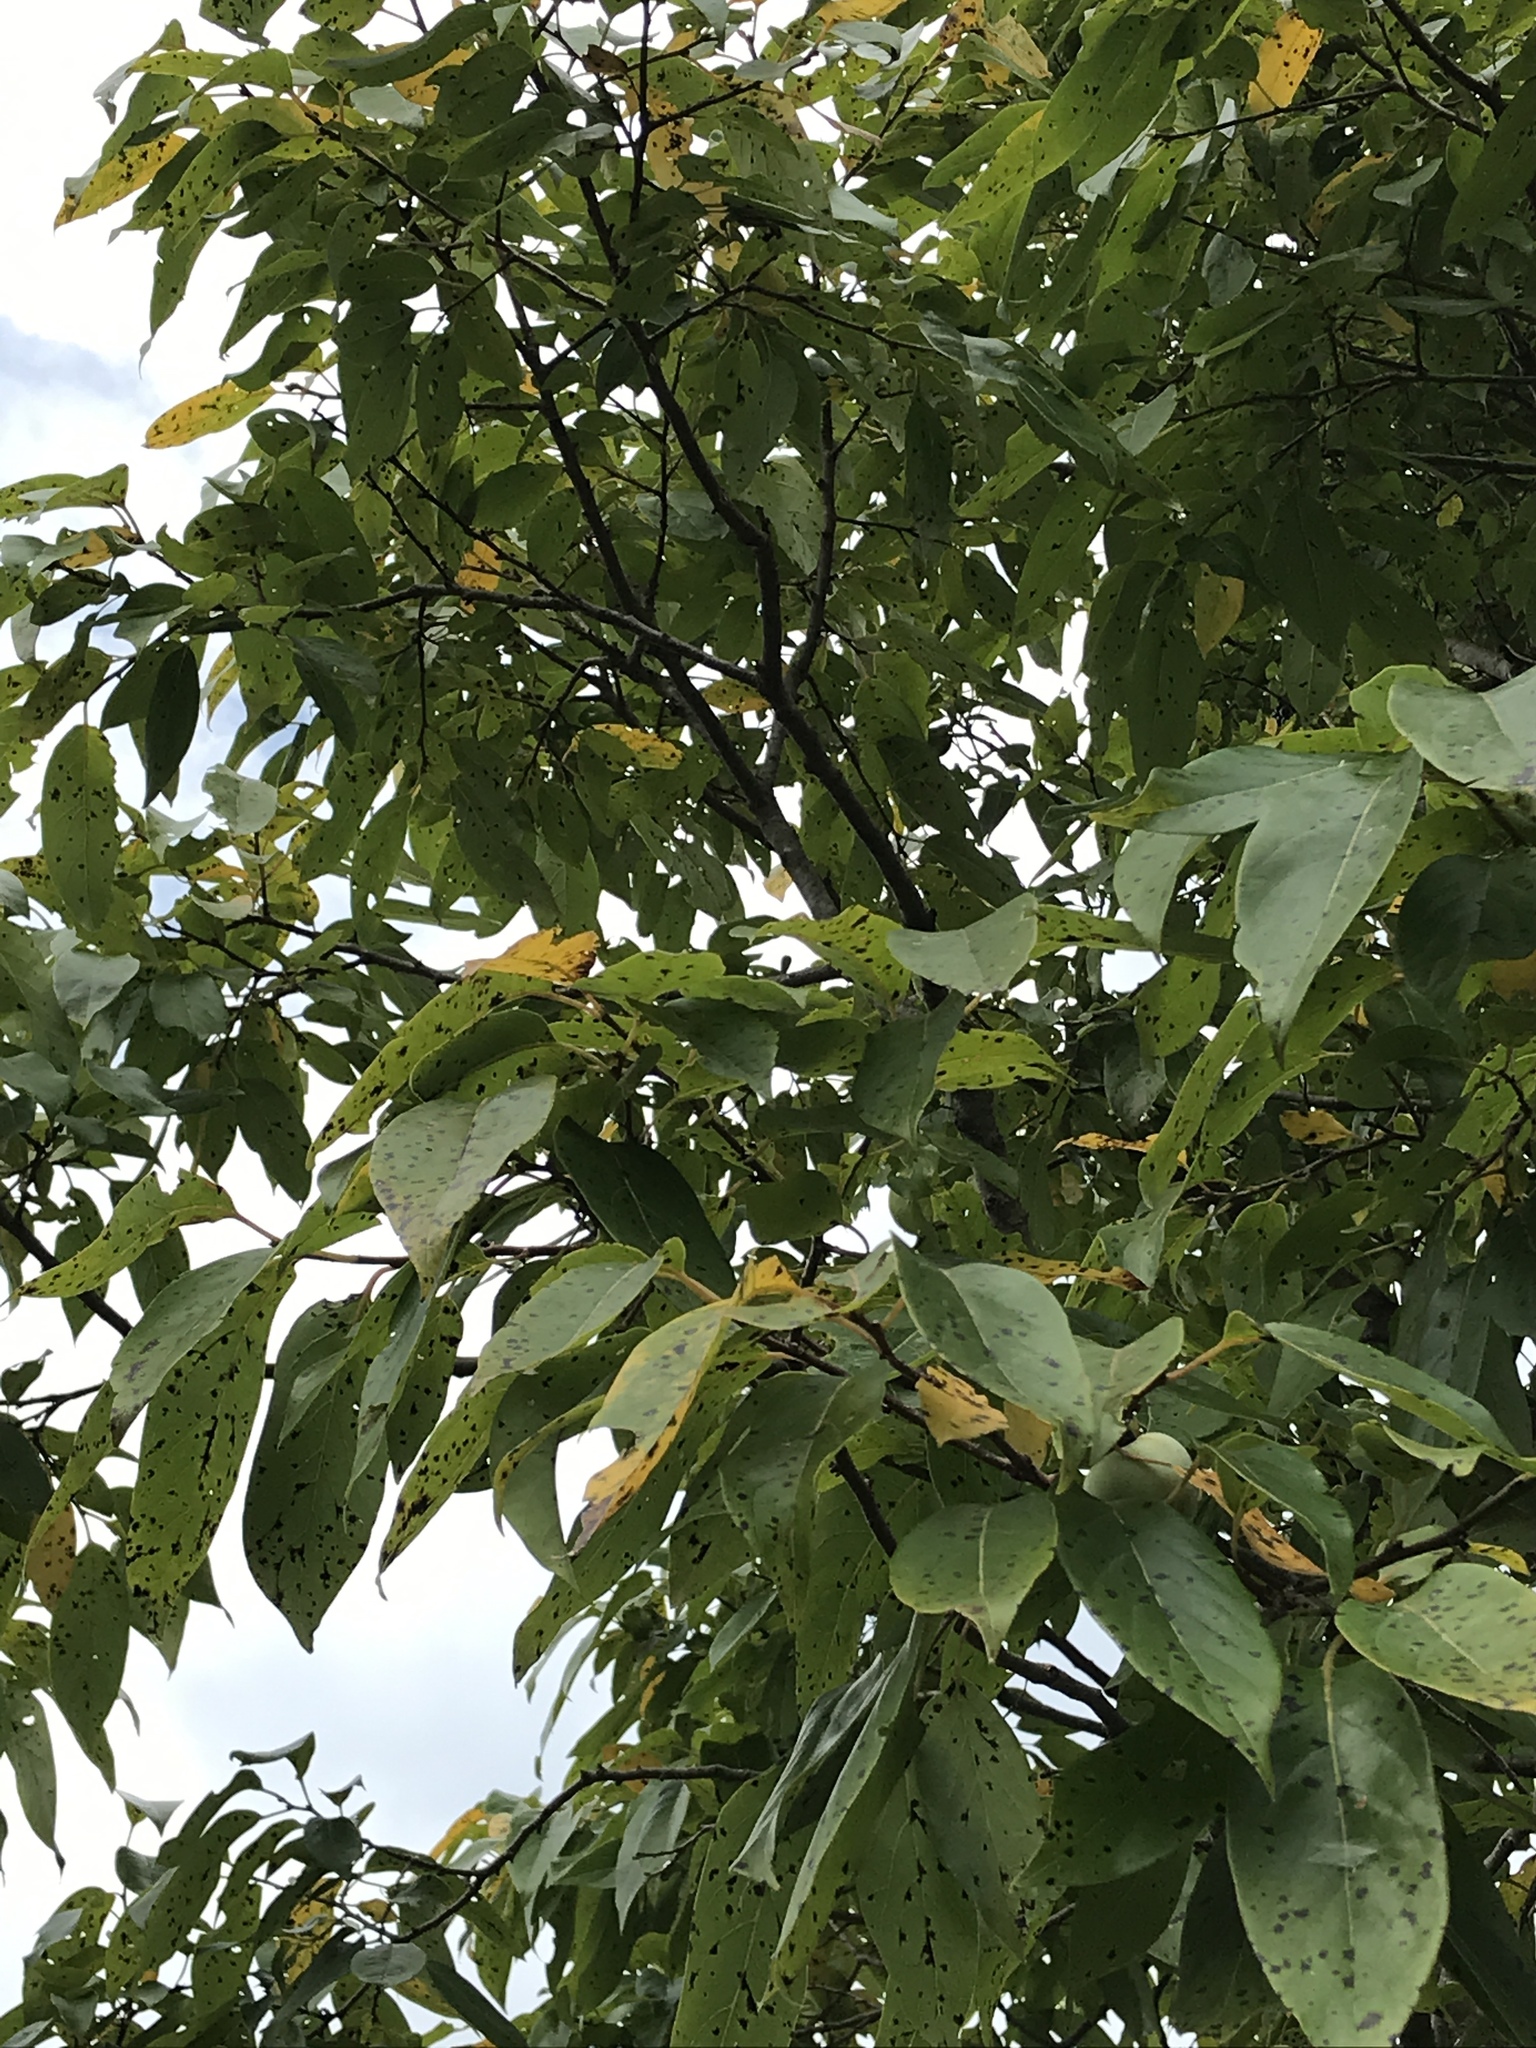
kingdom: Plantae
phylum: Tracheophyta
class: Magnoliopsida
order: Ericales
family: Ebenaceae
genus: Diospyros
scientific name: Diospyros virginiana
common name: Persimmon
